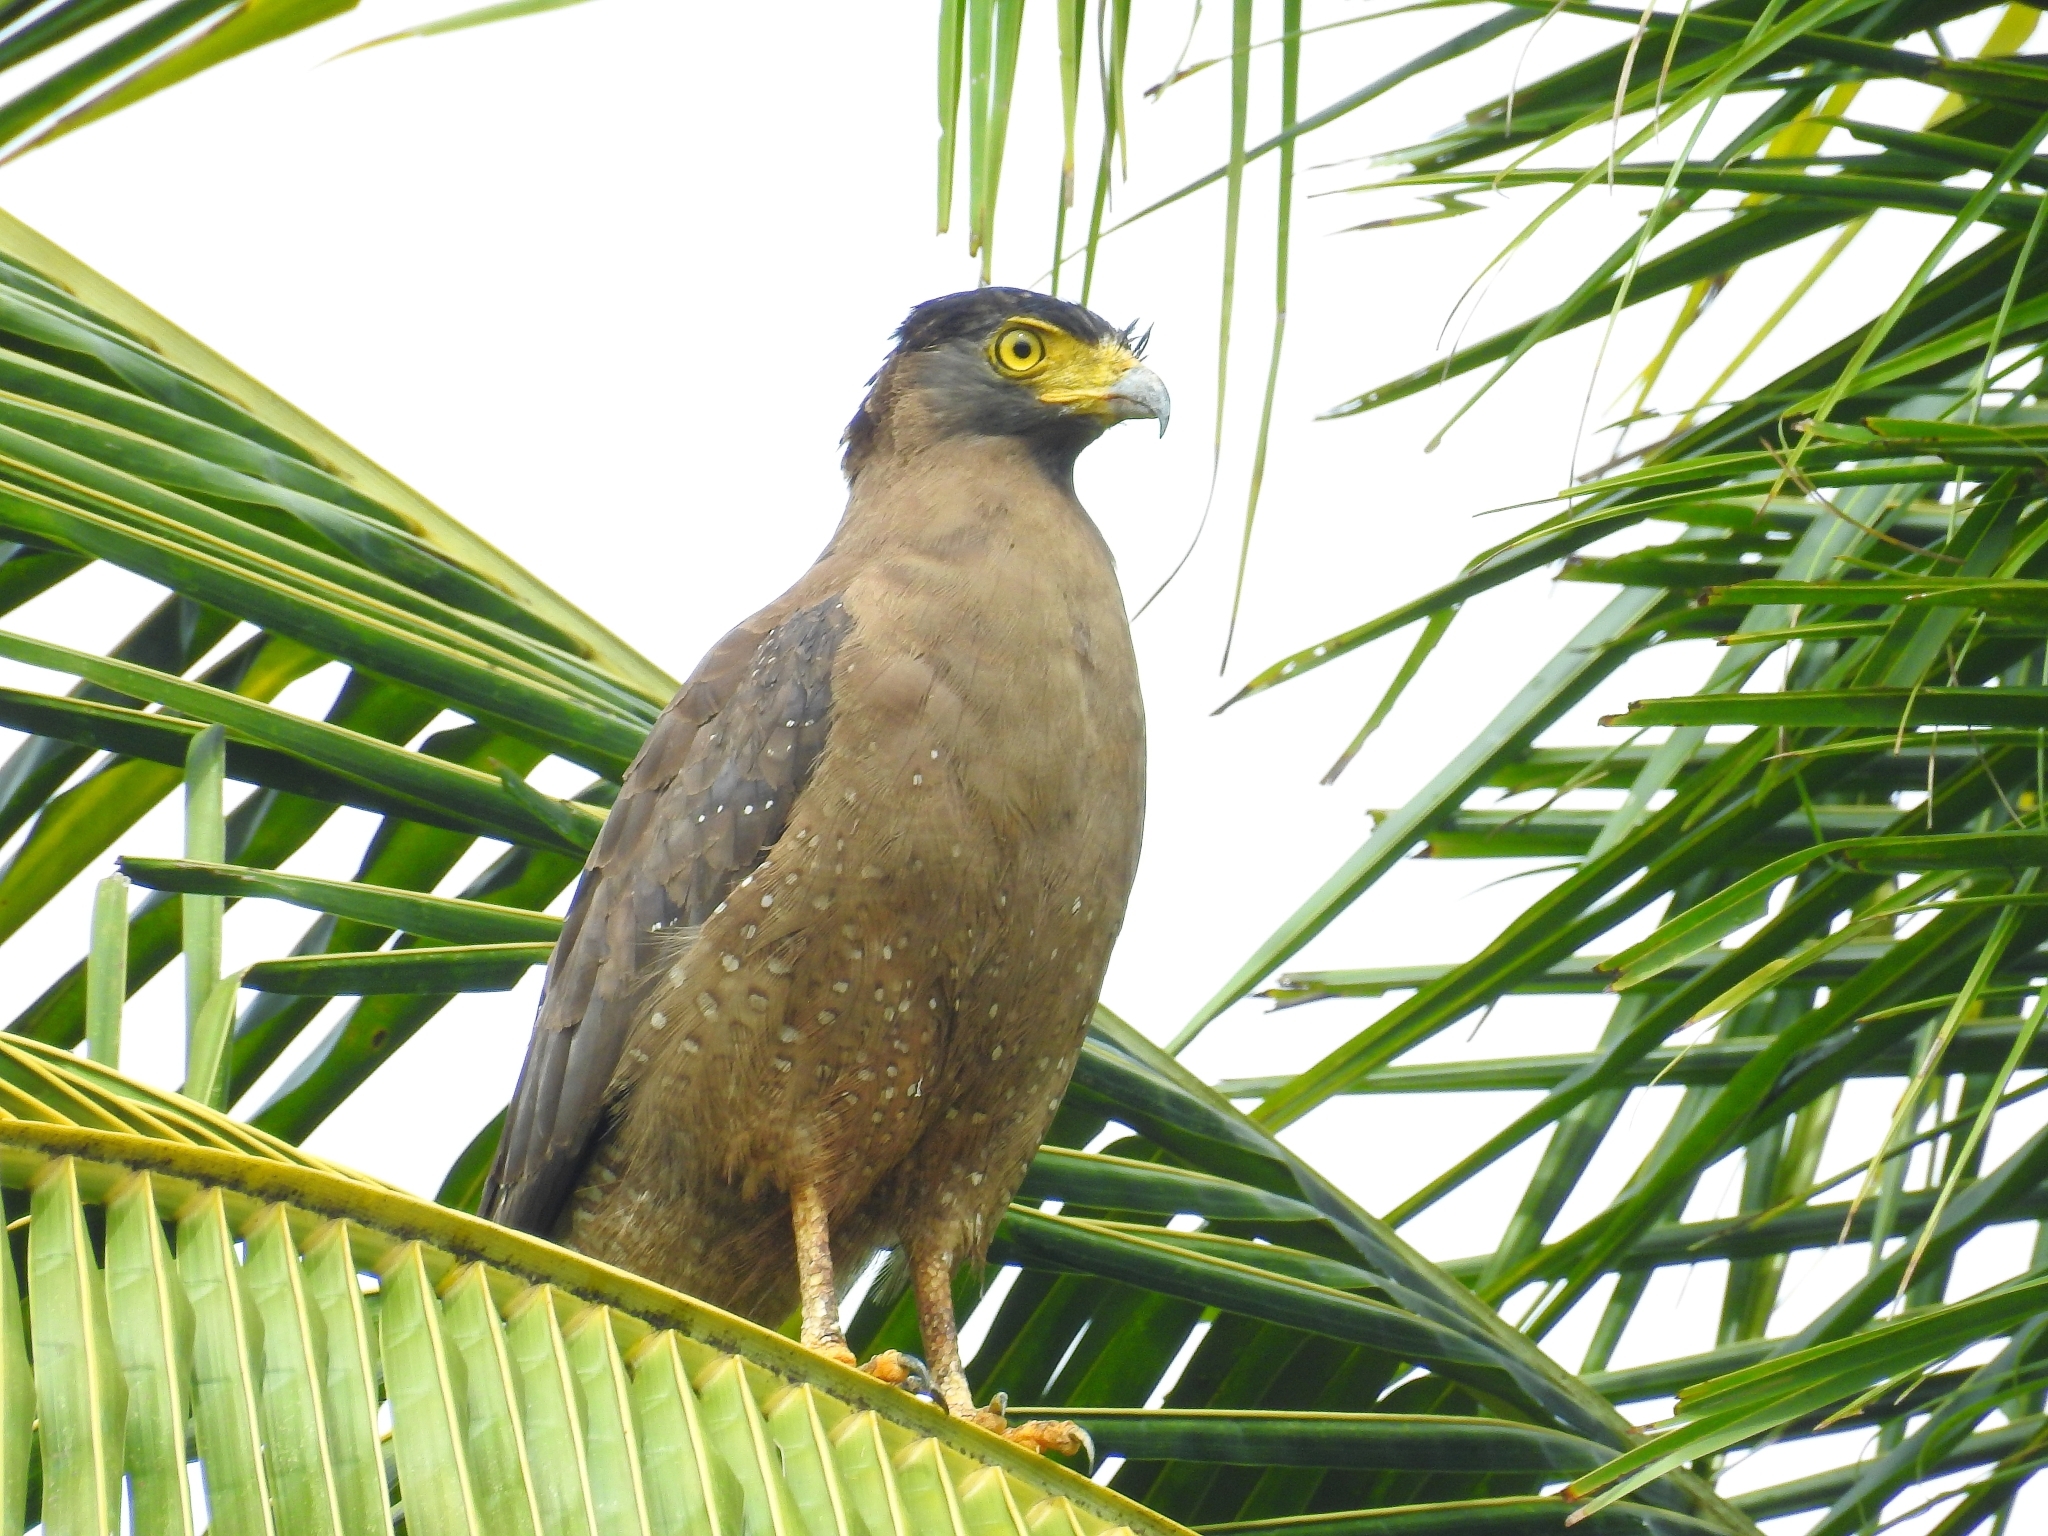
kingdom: Animalia
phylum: Chordata
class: Aves
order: Accipitriformes
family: Accipitridae
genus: Spilornis
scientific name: Spilornis cheela
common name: Crested serpent eagle
